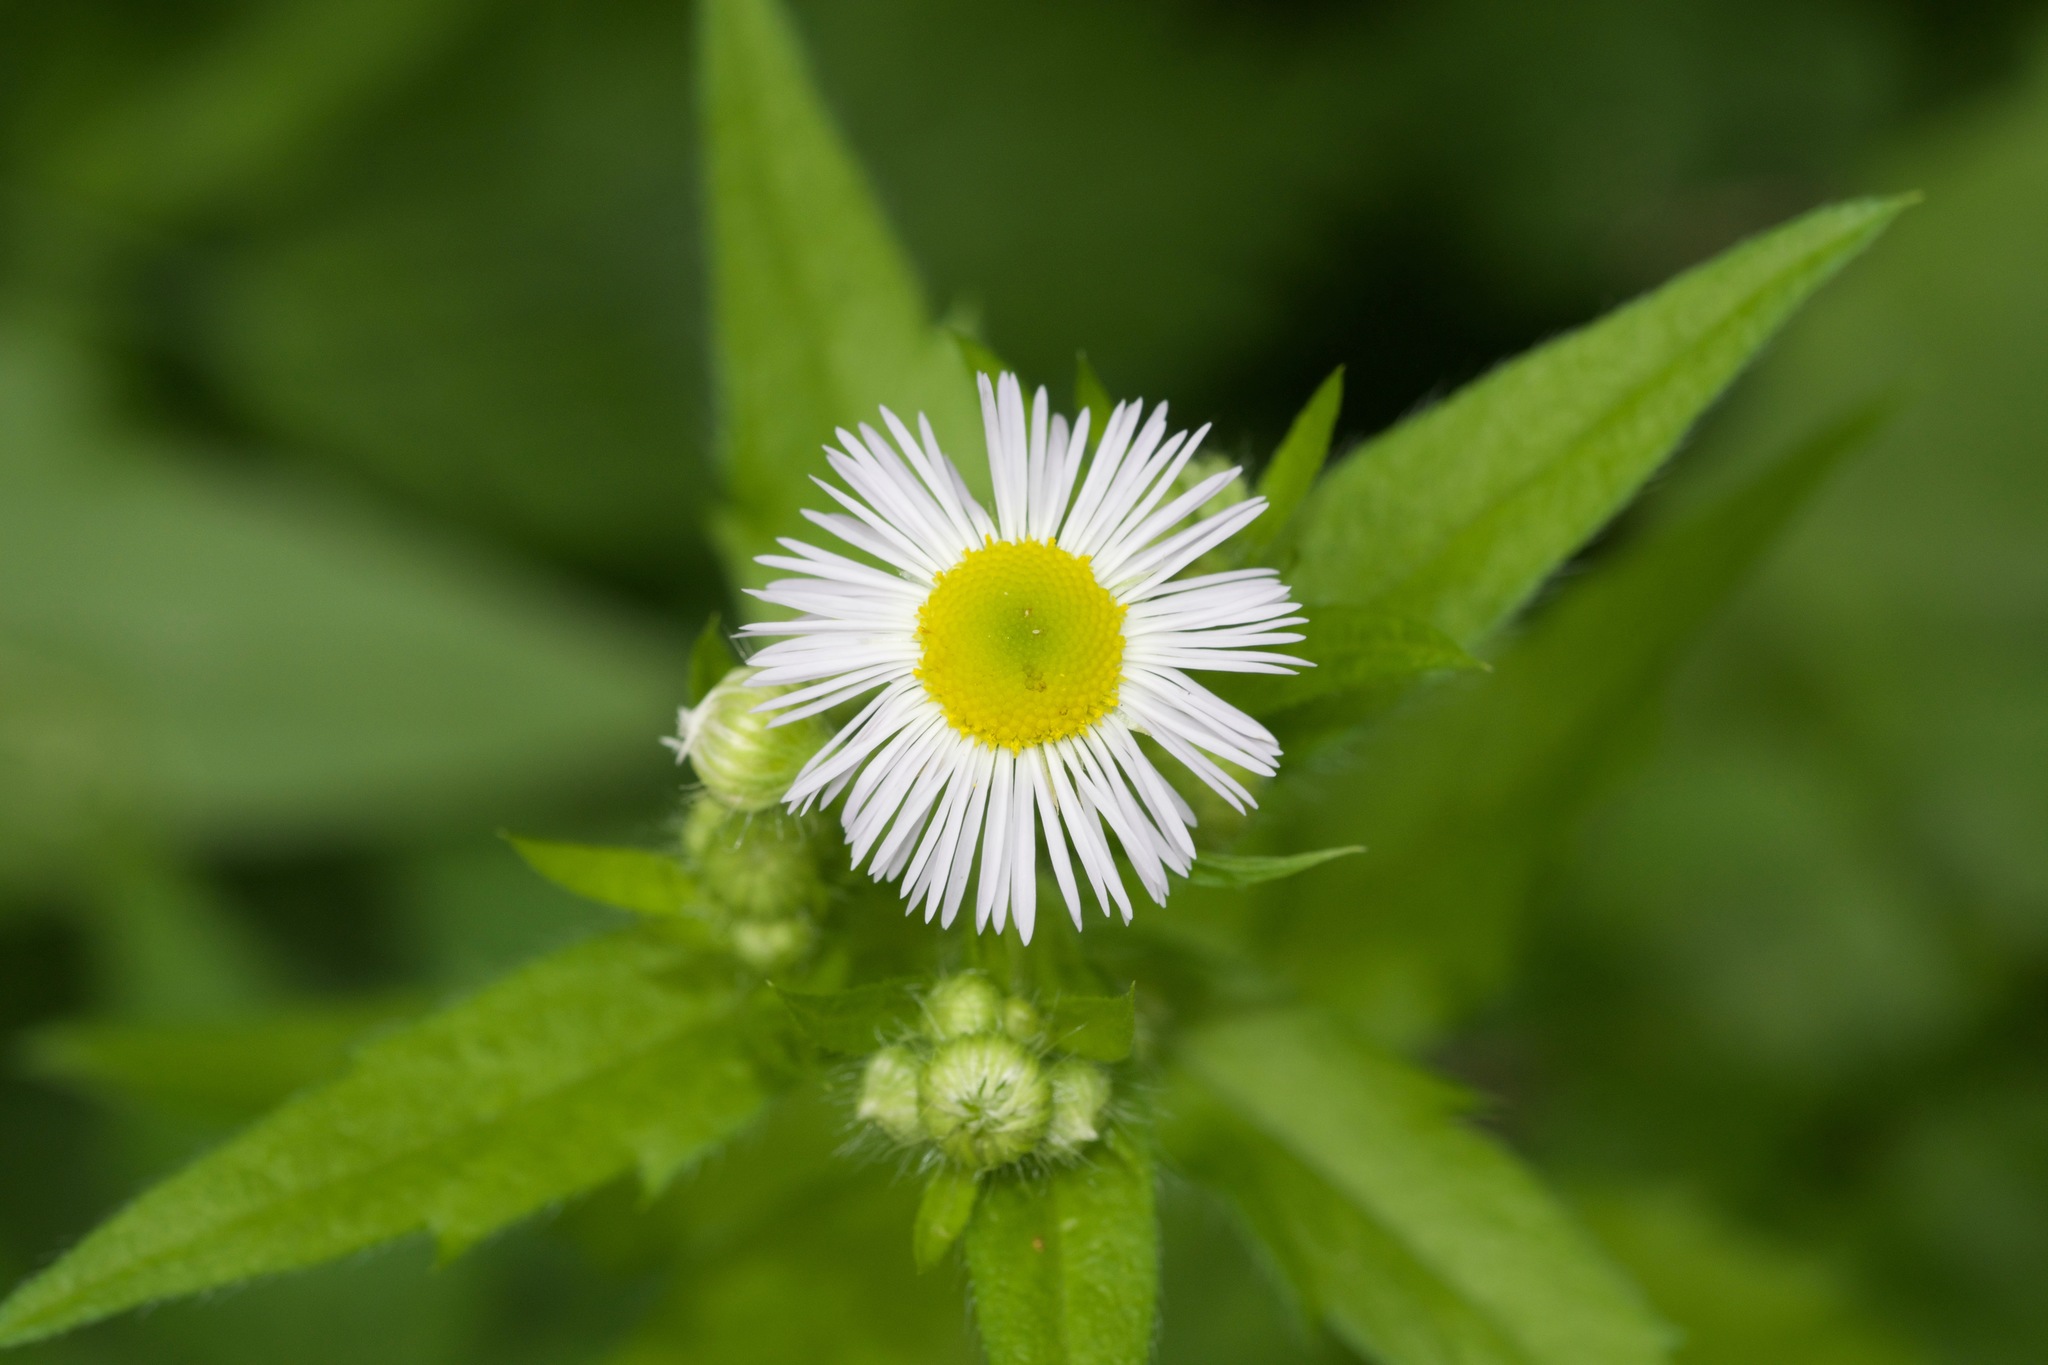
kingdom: Plantae
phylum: Tracheophyta
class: Magnoliopsida
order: Asterales
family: Asteraceae
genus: Erigeron
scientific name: Erigeron strigosus
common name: Common eastern fleabane
